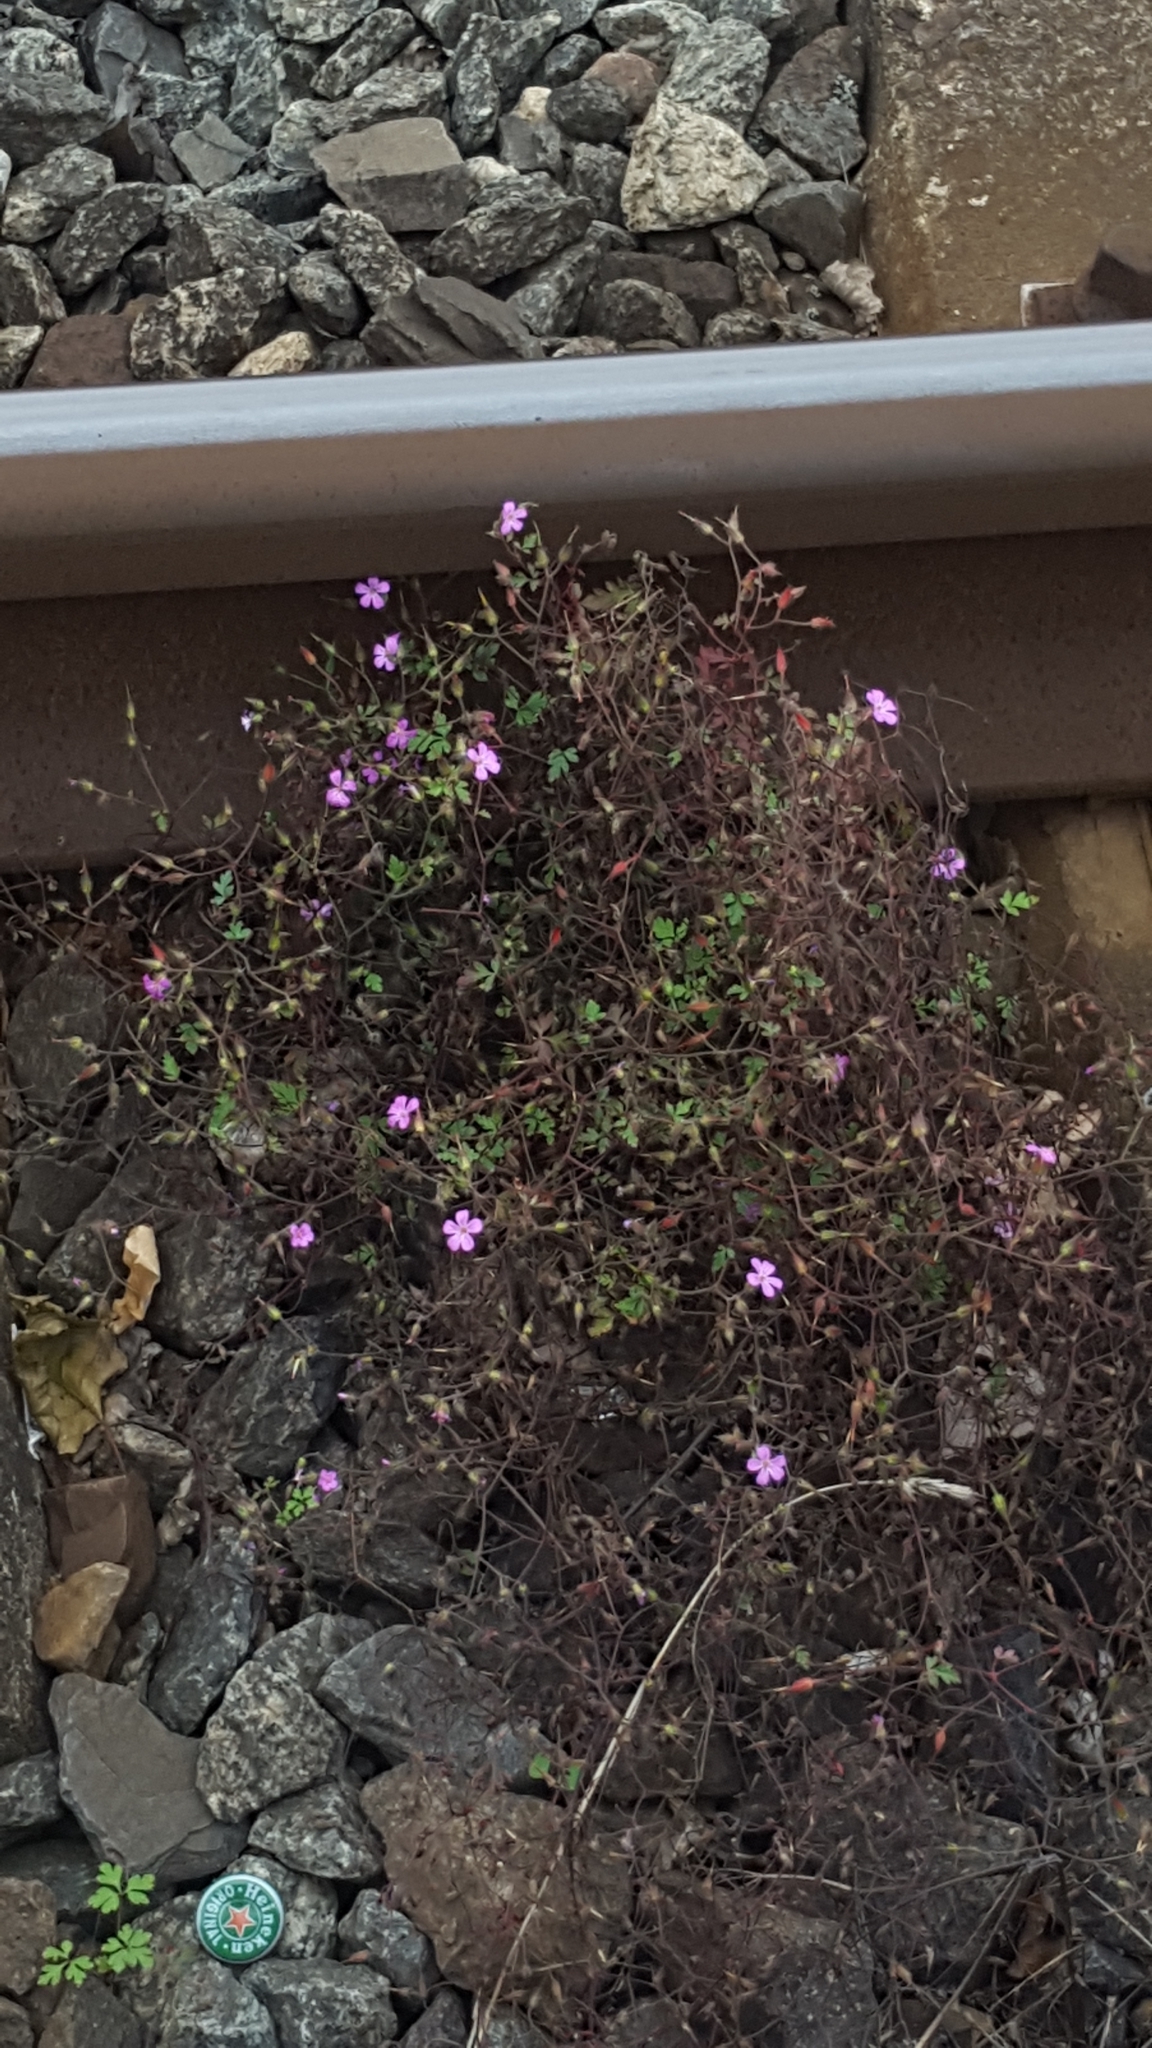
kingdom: Plantae
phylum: Tracheophyta
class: Magnoliopsida
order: Geraniales
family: Geraniaceae
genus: Geranium
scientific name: Geranium robertianum
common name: Herb-robert
